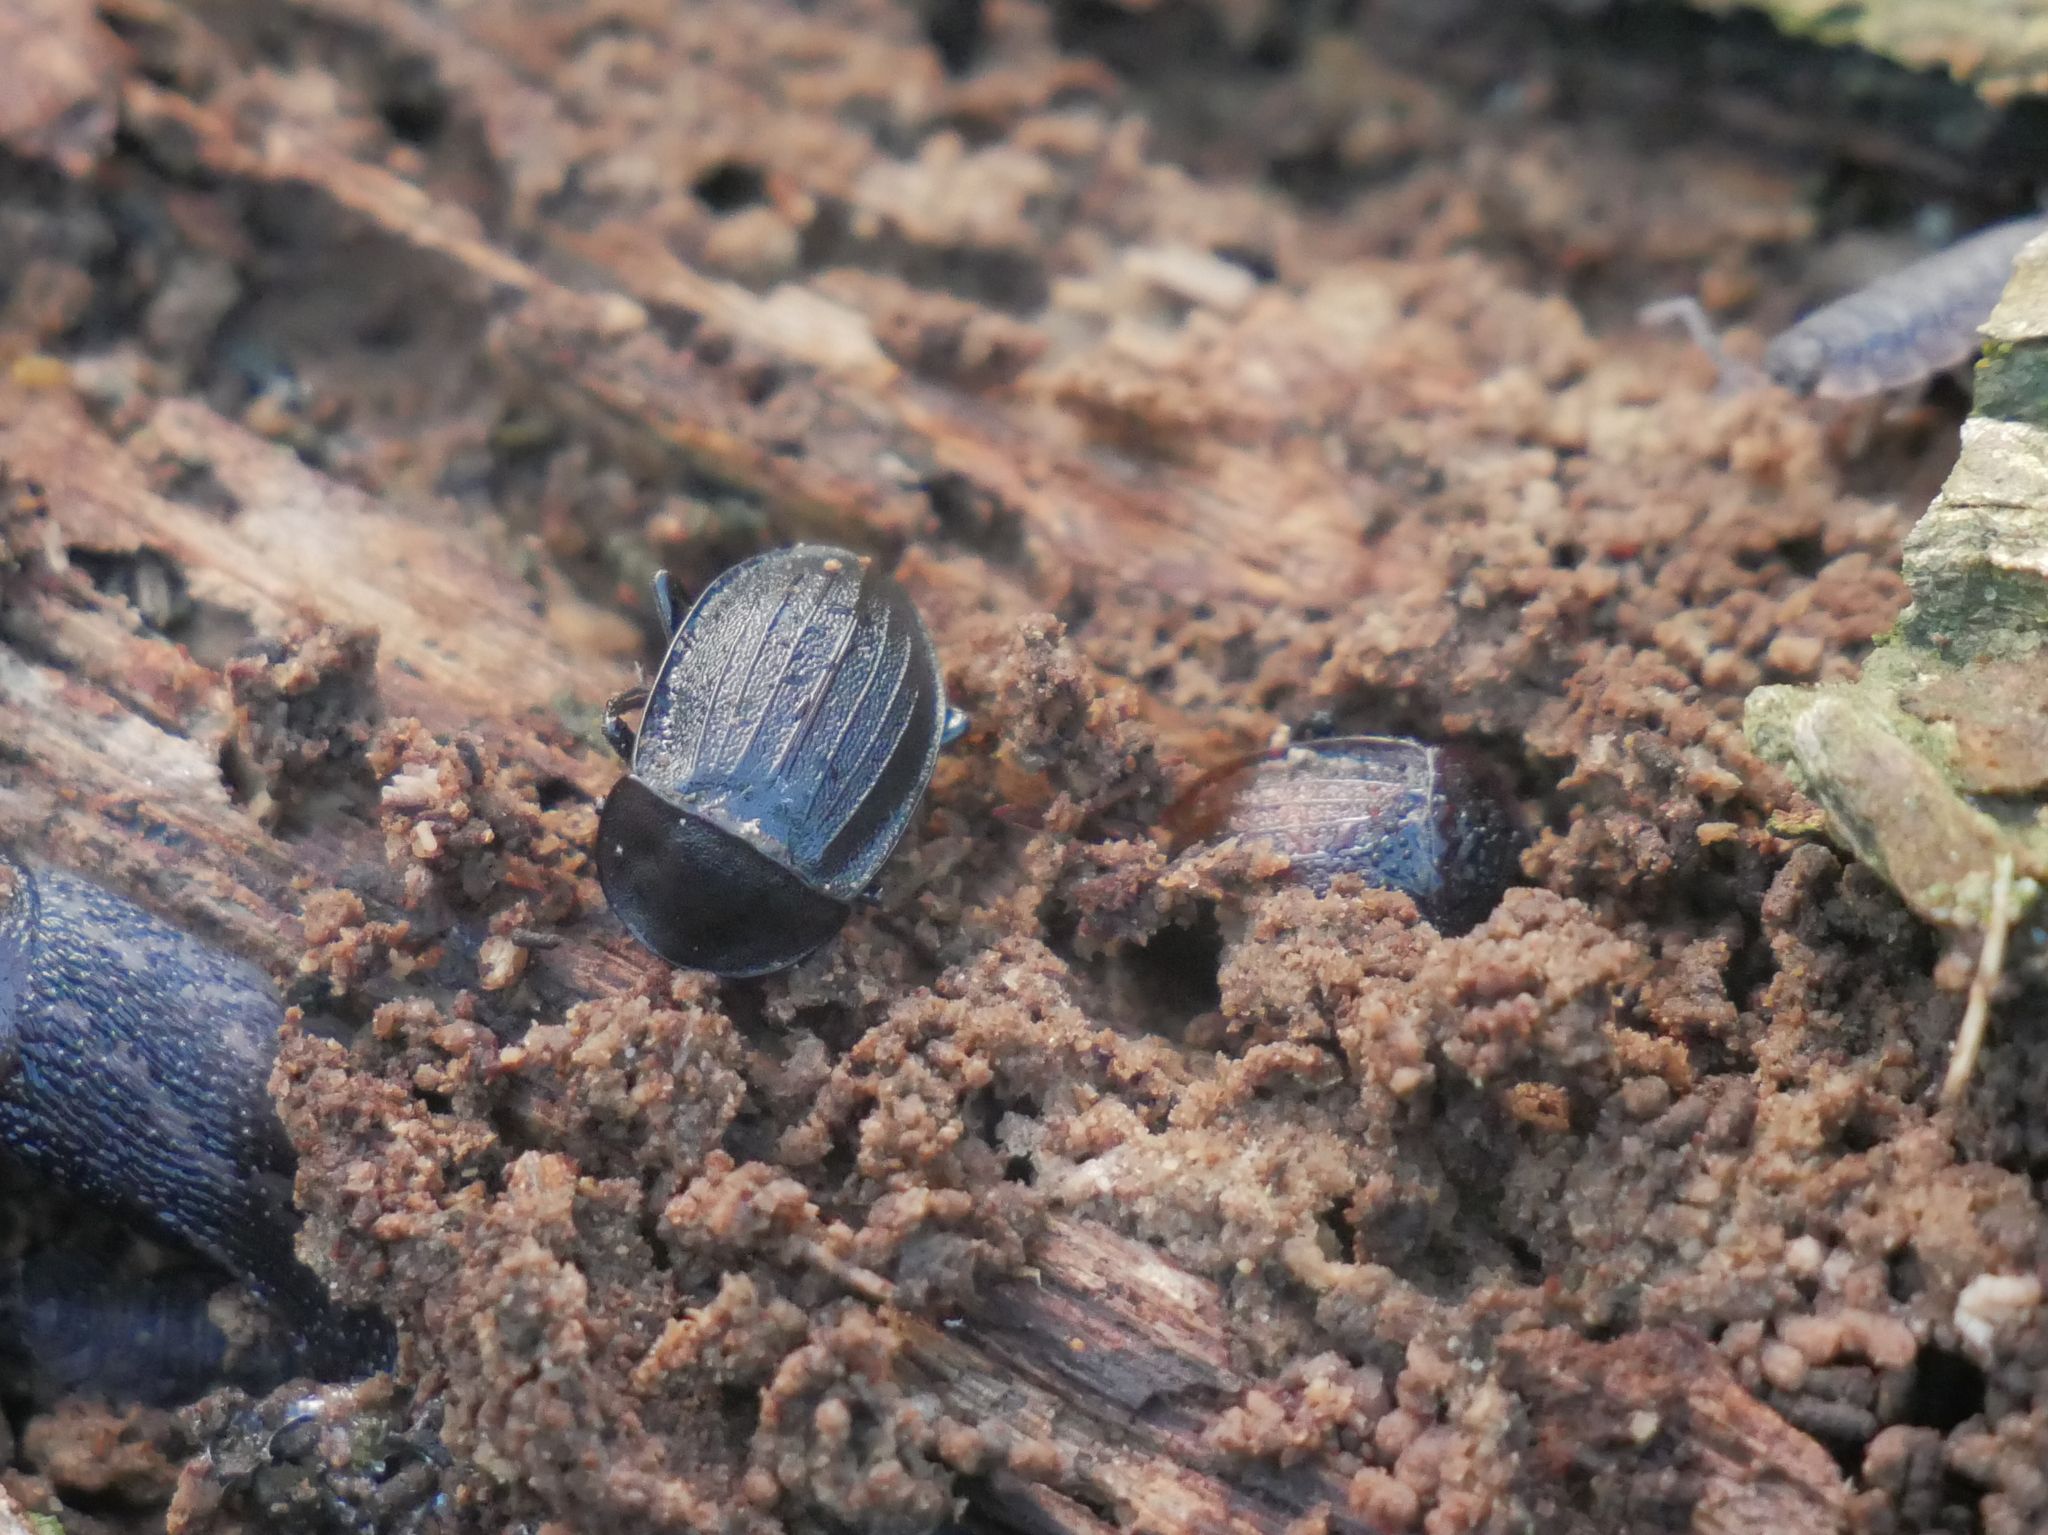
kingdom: Animalia
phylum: Arthropoda
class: Insecta
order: Coleoptera
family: Staphylinidae
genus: Silpha
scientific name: Silpha atrata
